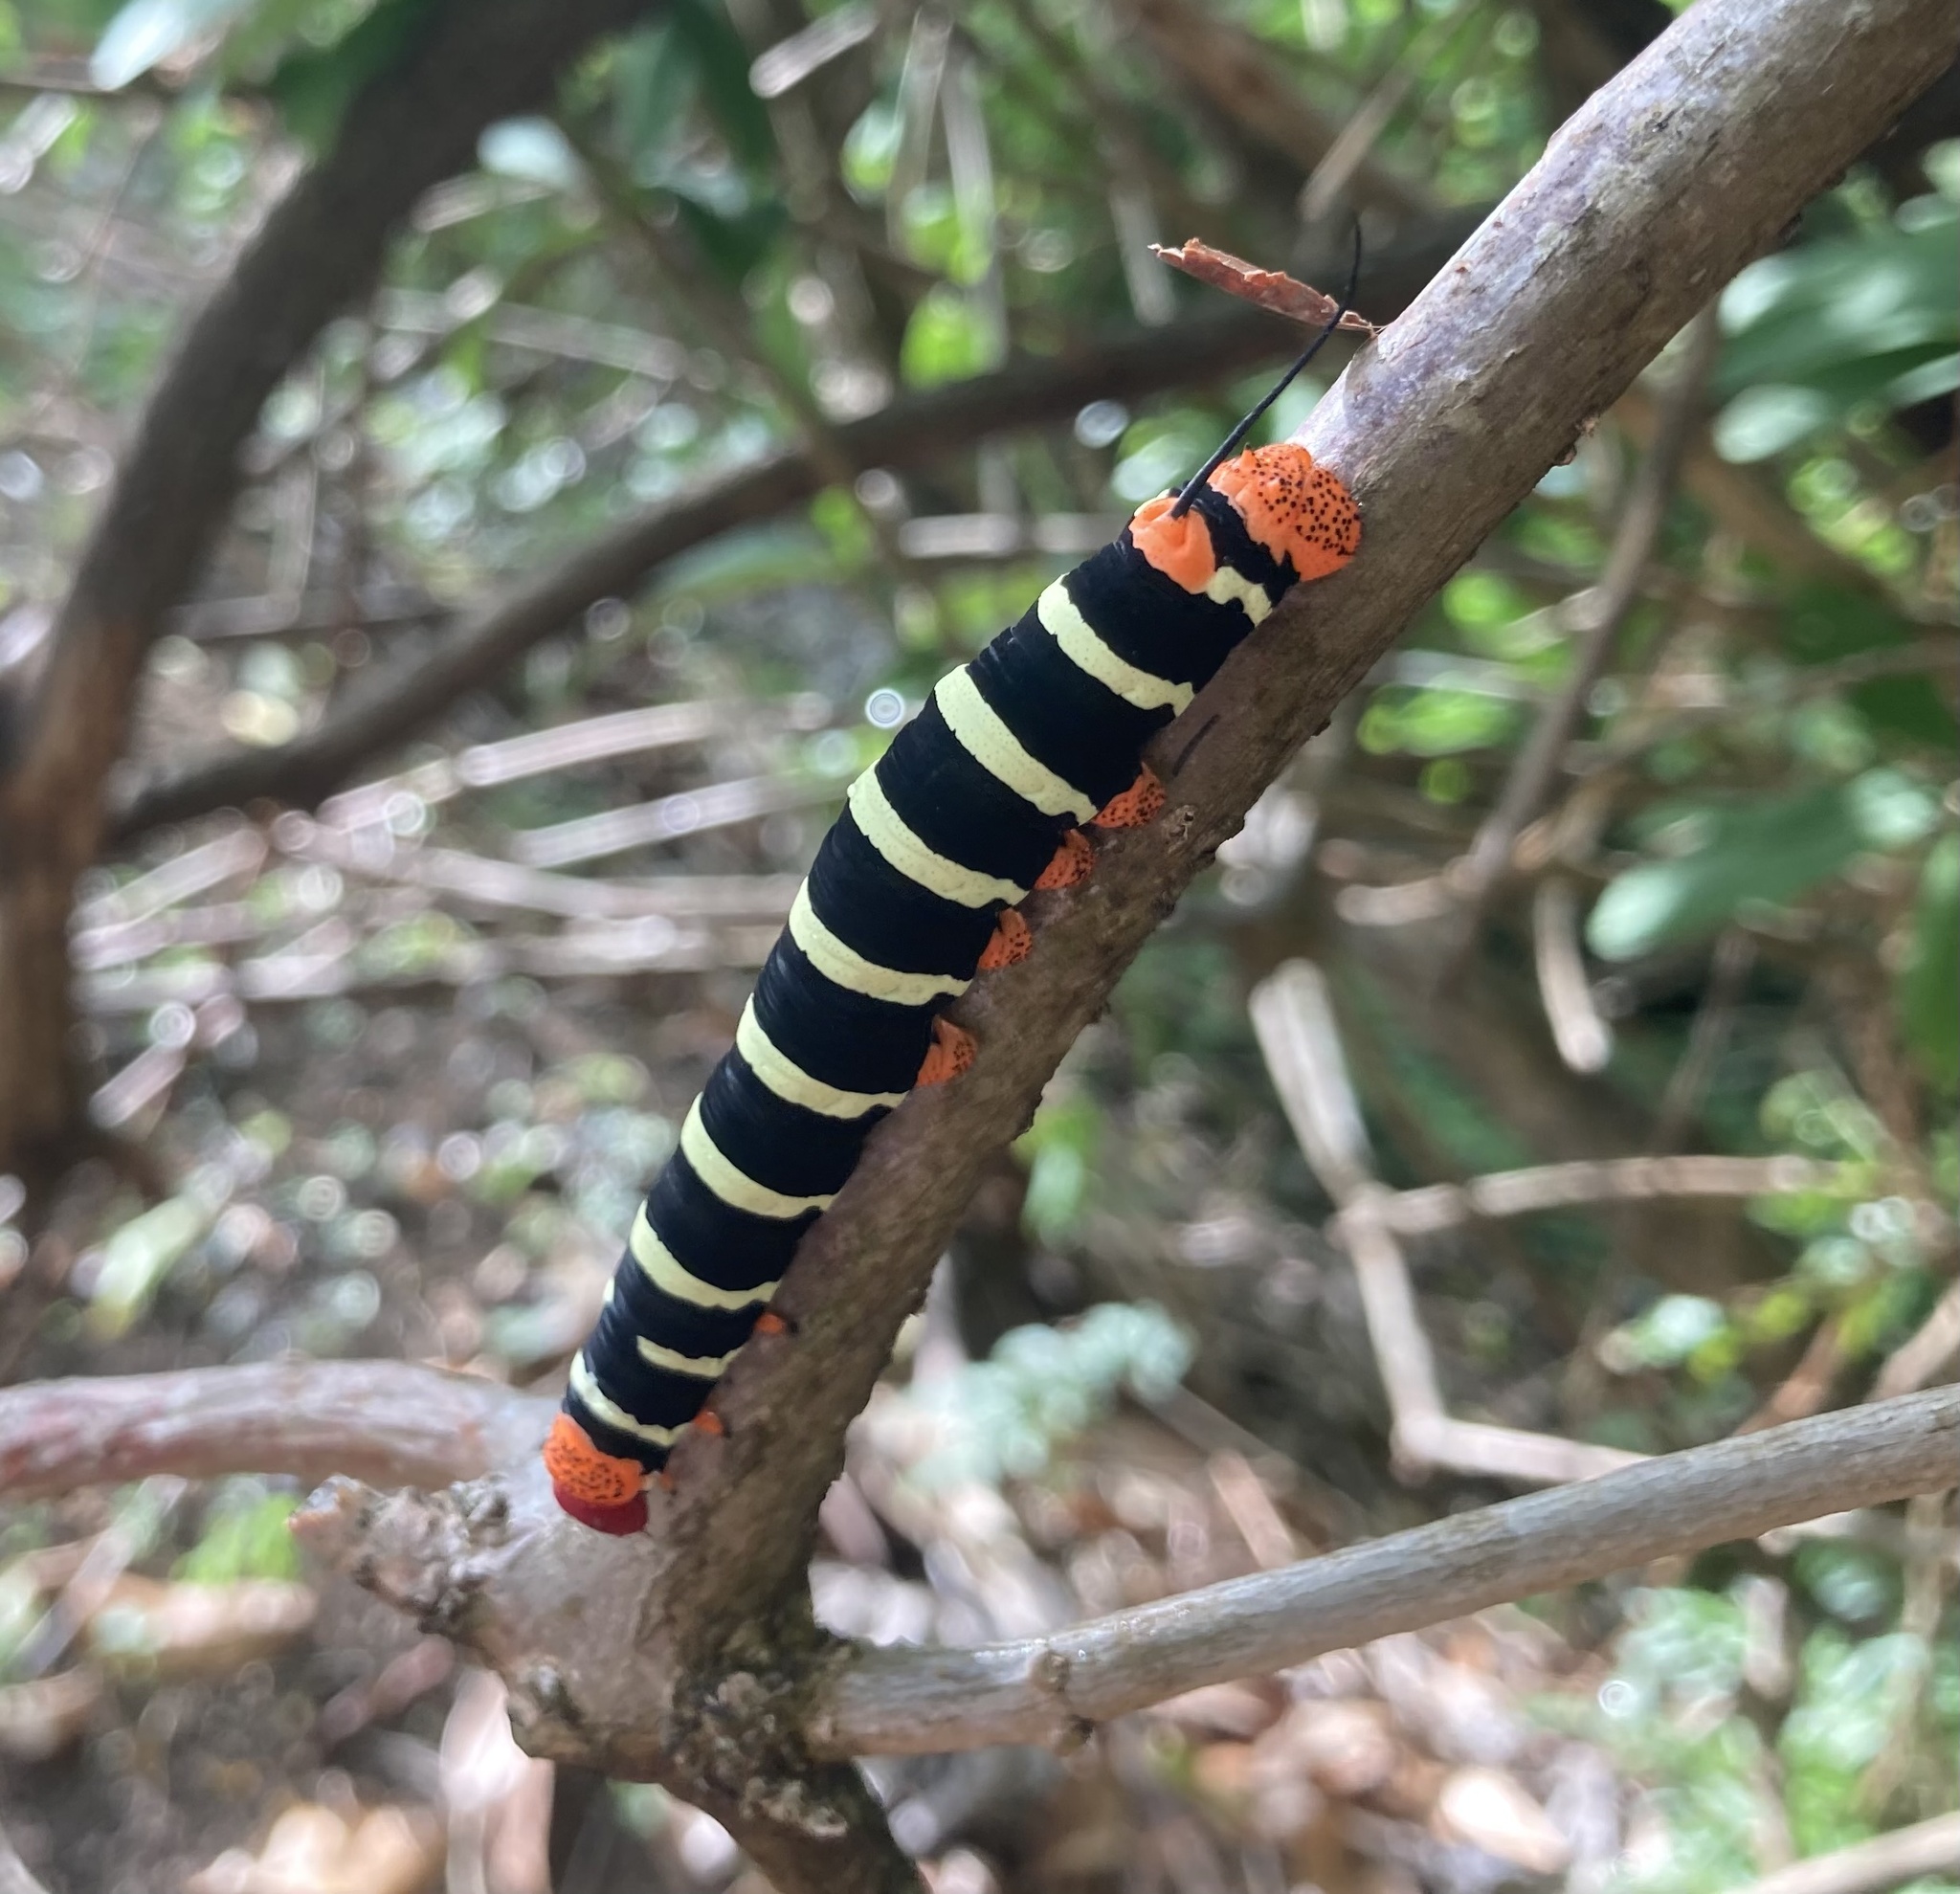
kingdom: Animalia
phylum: Arthropoda
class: Insecta
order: Lepidoptera
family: Sphingidae
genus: Pseudosphinx
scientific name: Pseudosphinx tetrio
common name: Tetrio sphinx
